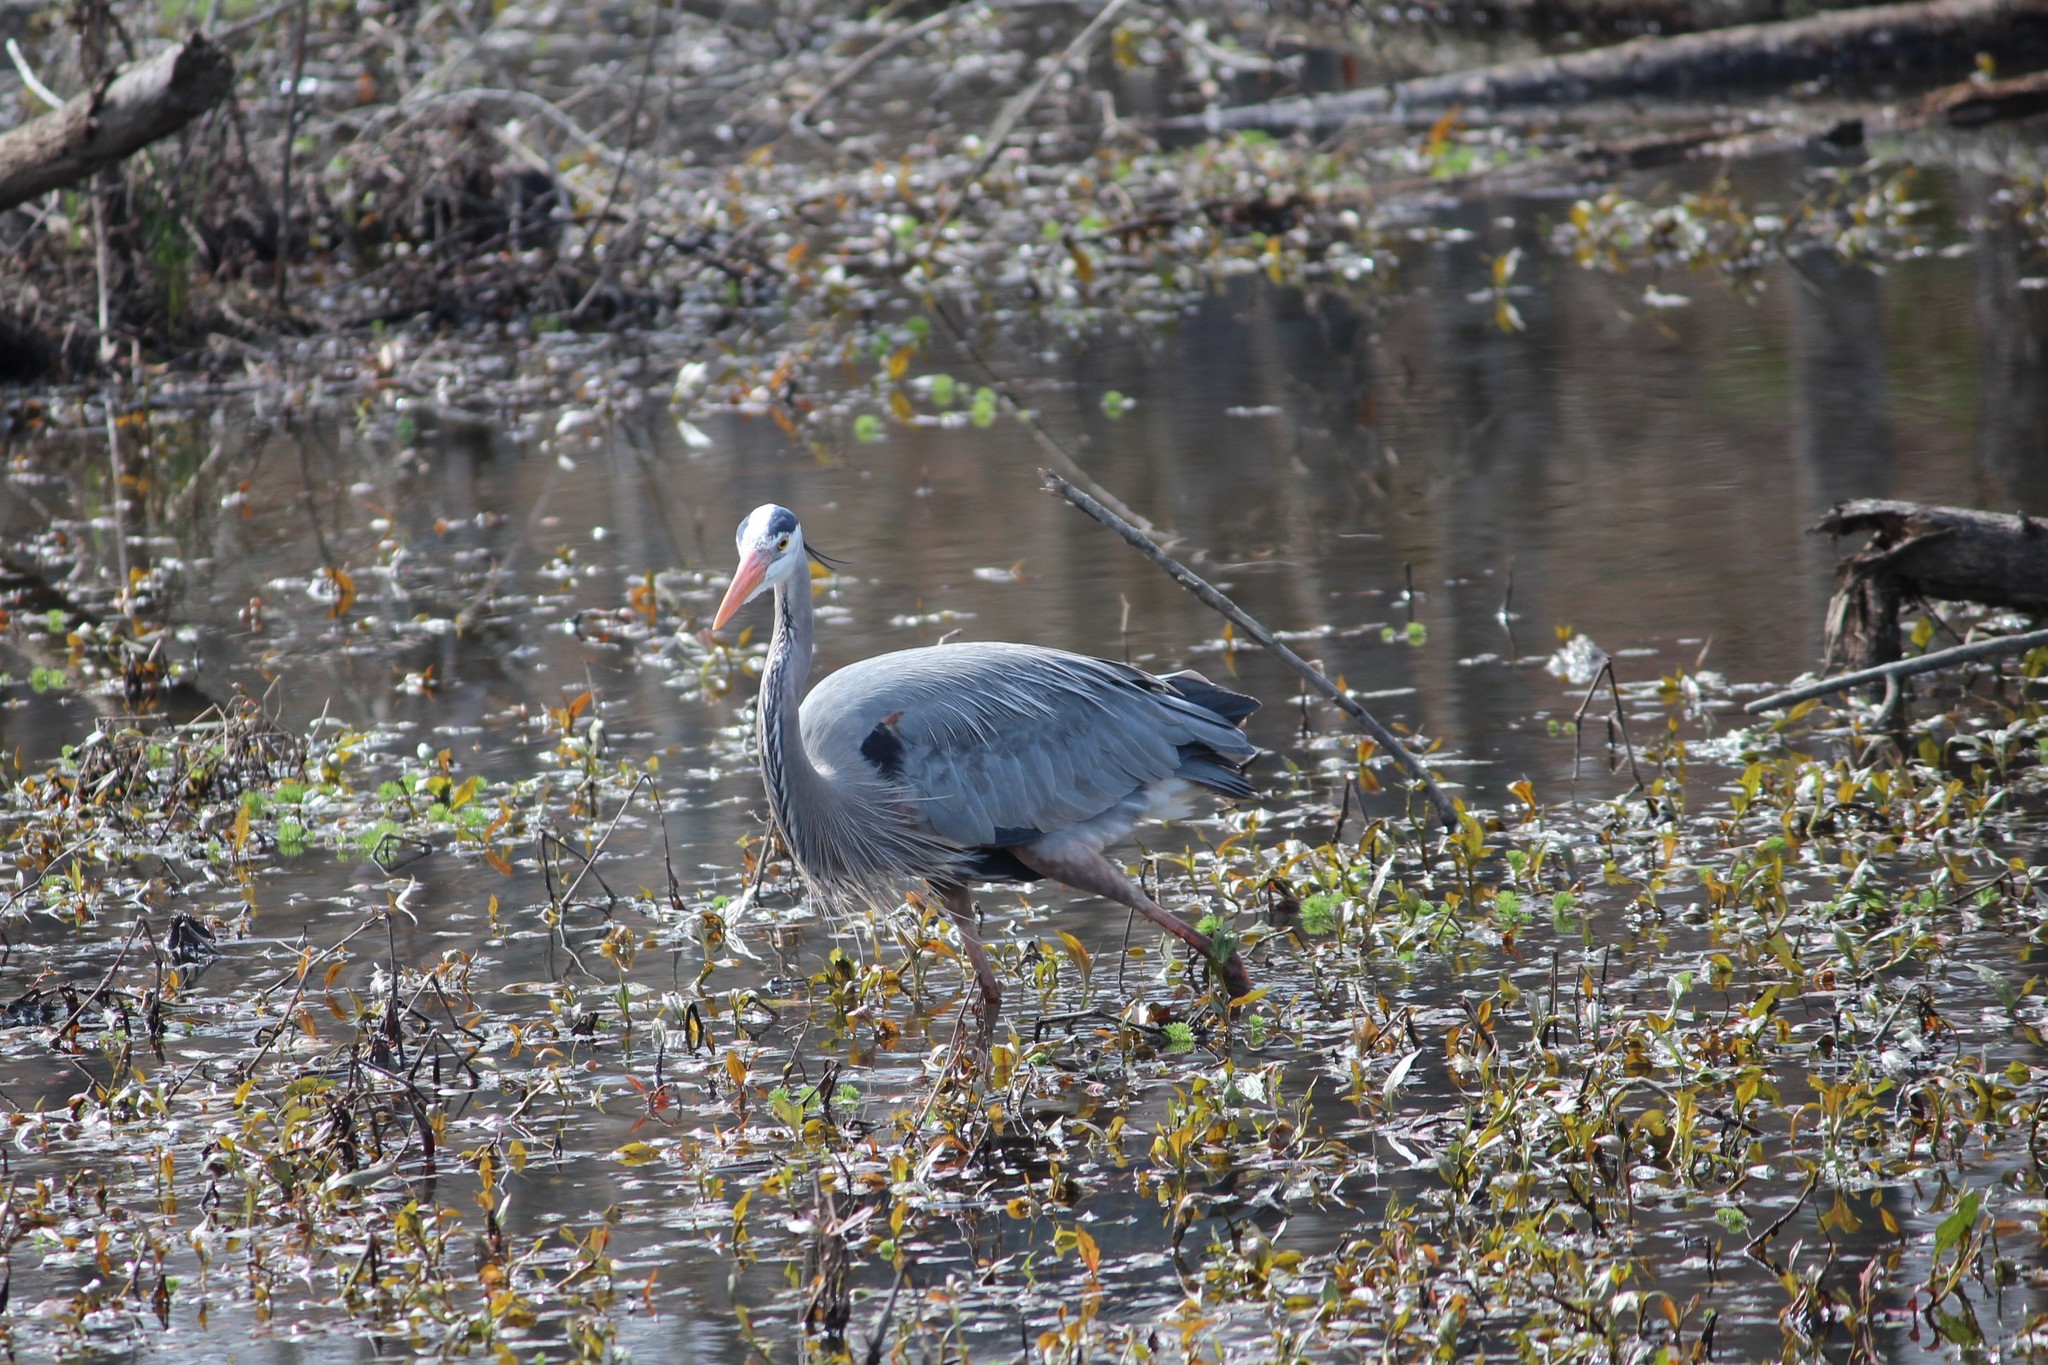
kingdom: Animalia
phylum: Chordata
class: Aves
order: Pelecaniformes
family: Ardeidae
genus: Ardea
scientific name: Ardea herodias
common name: Great blue heron
